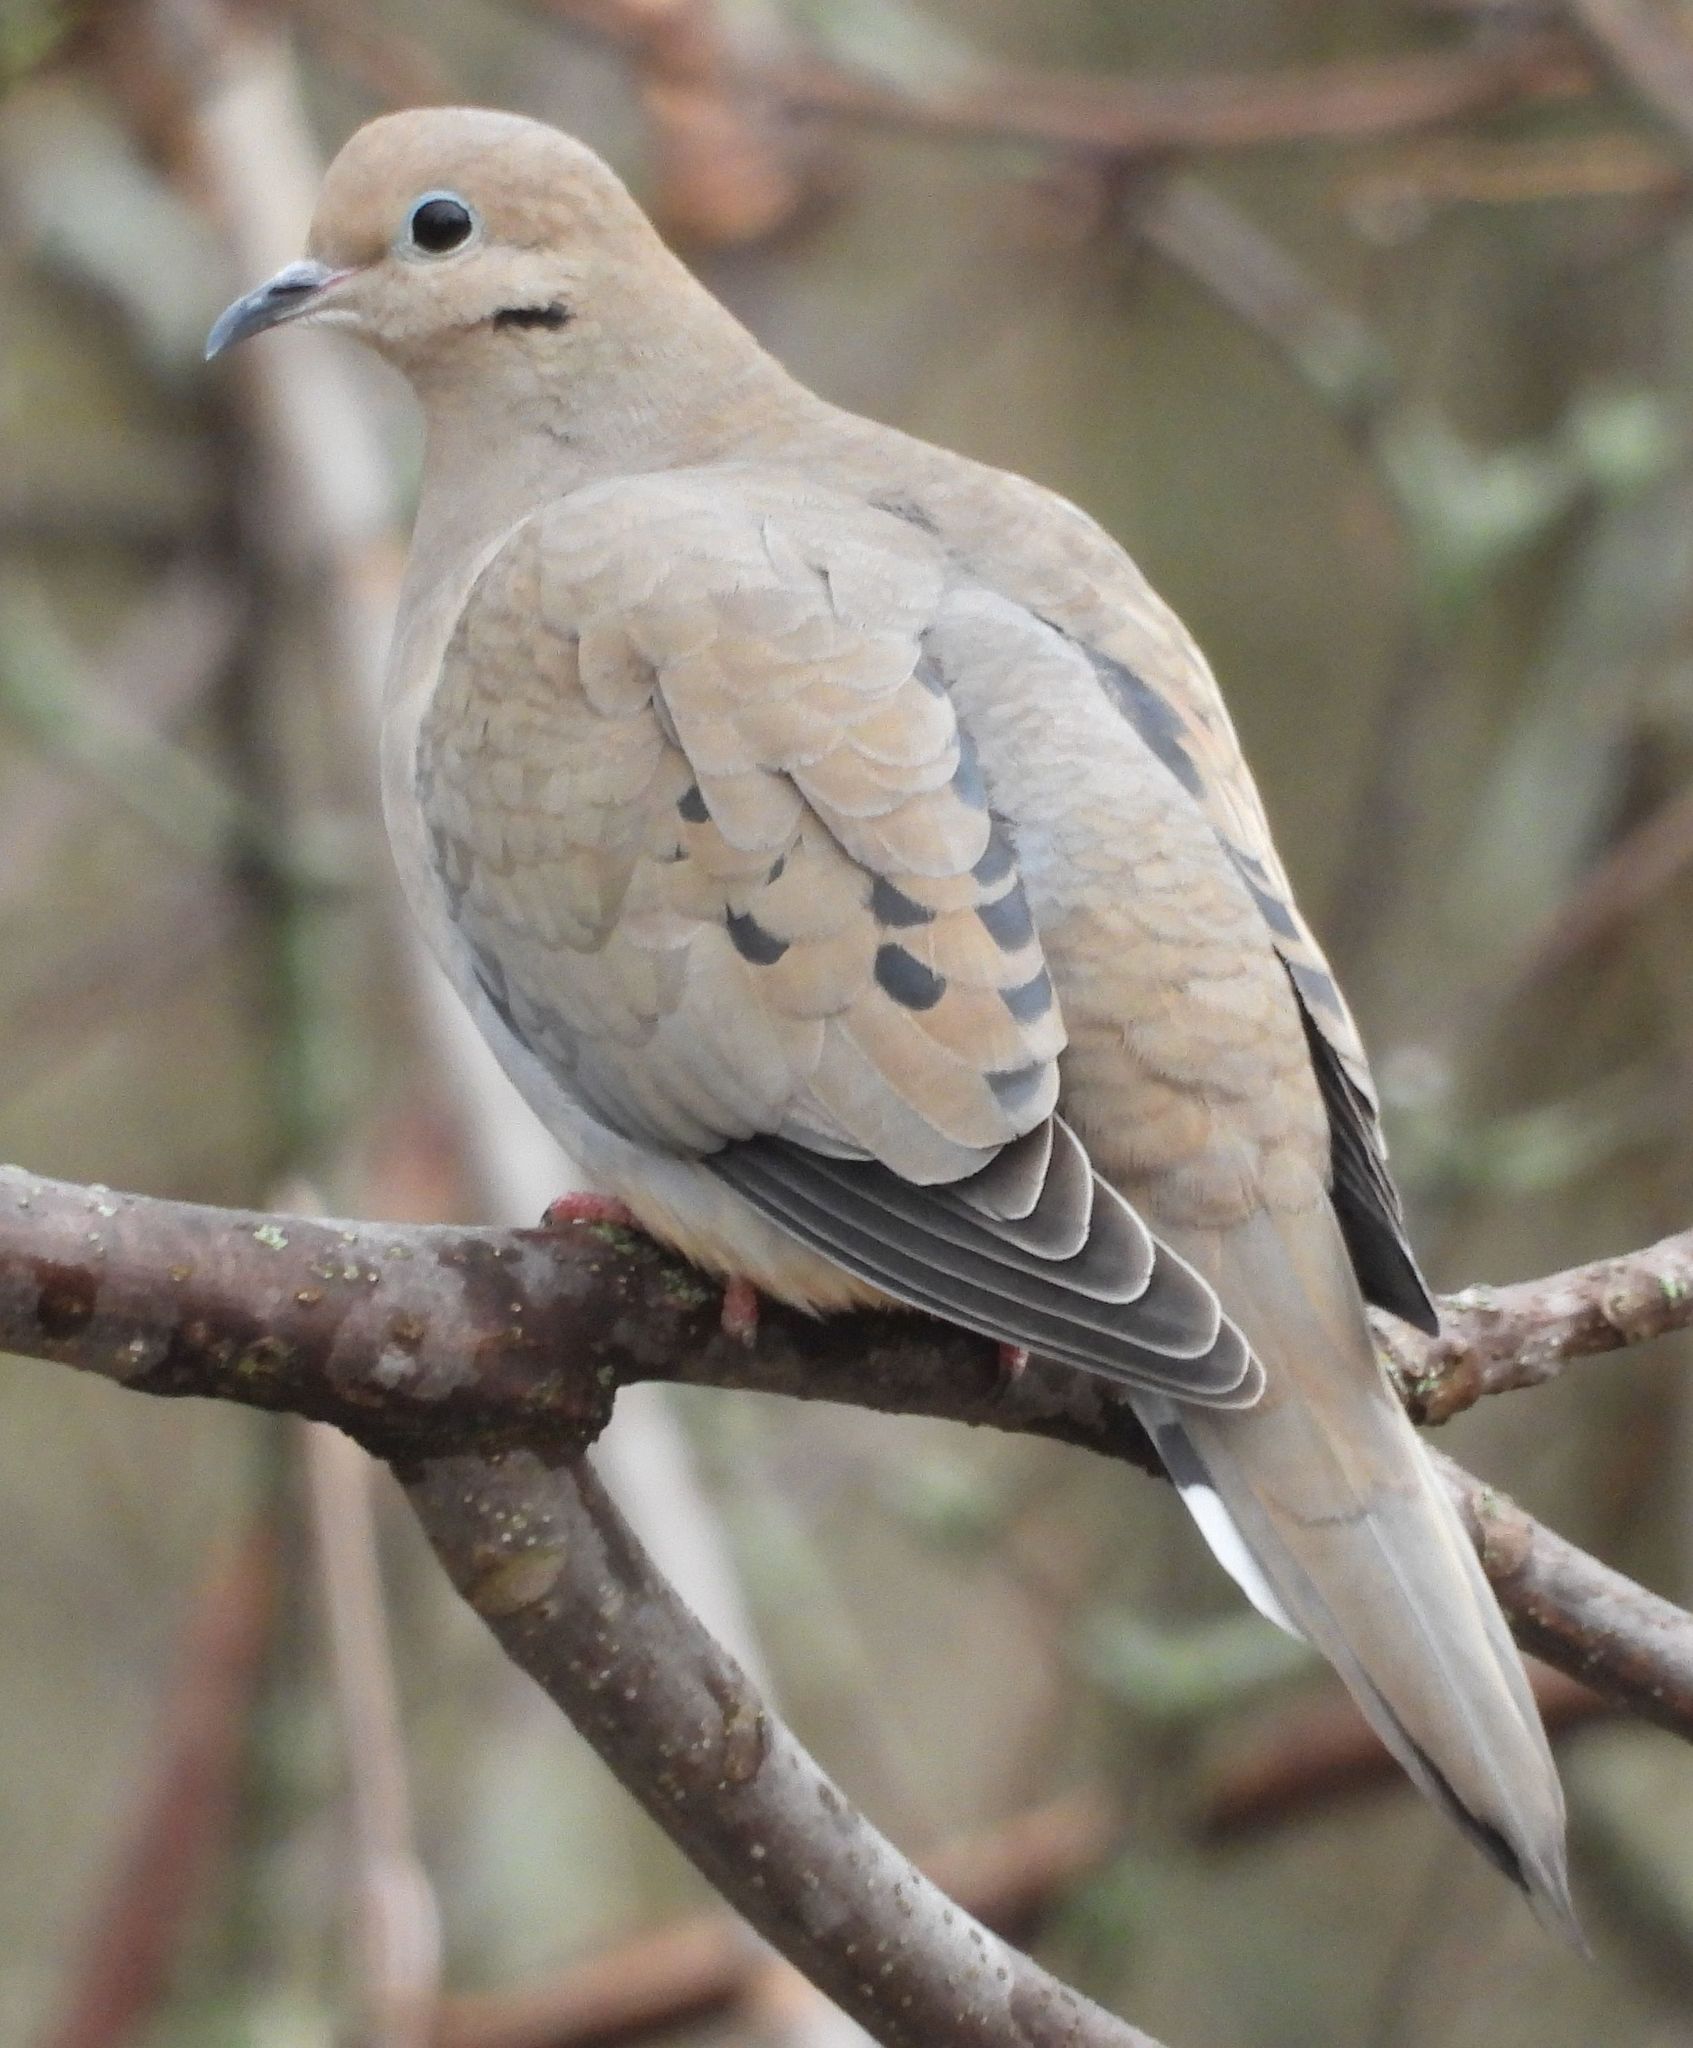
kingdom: Animalia
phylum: Chordata
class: Aves
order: Columbiformes
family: Columbidae
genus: Zenaida
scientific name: Zenaida macroura
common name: Mourning dove
